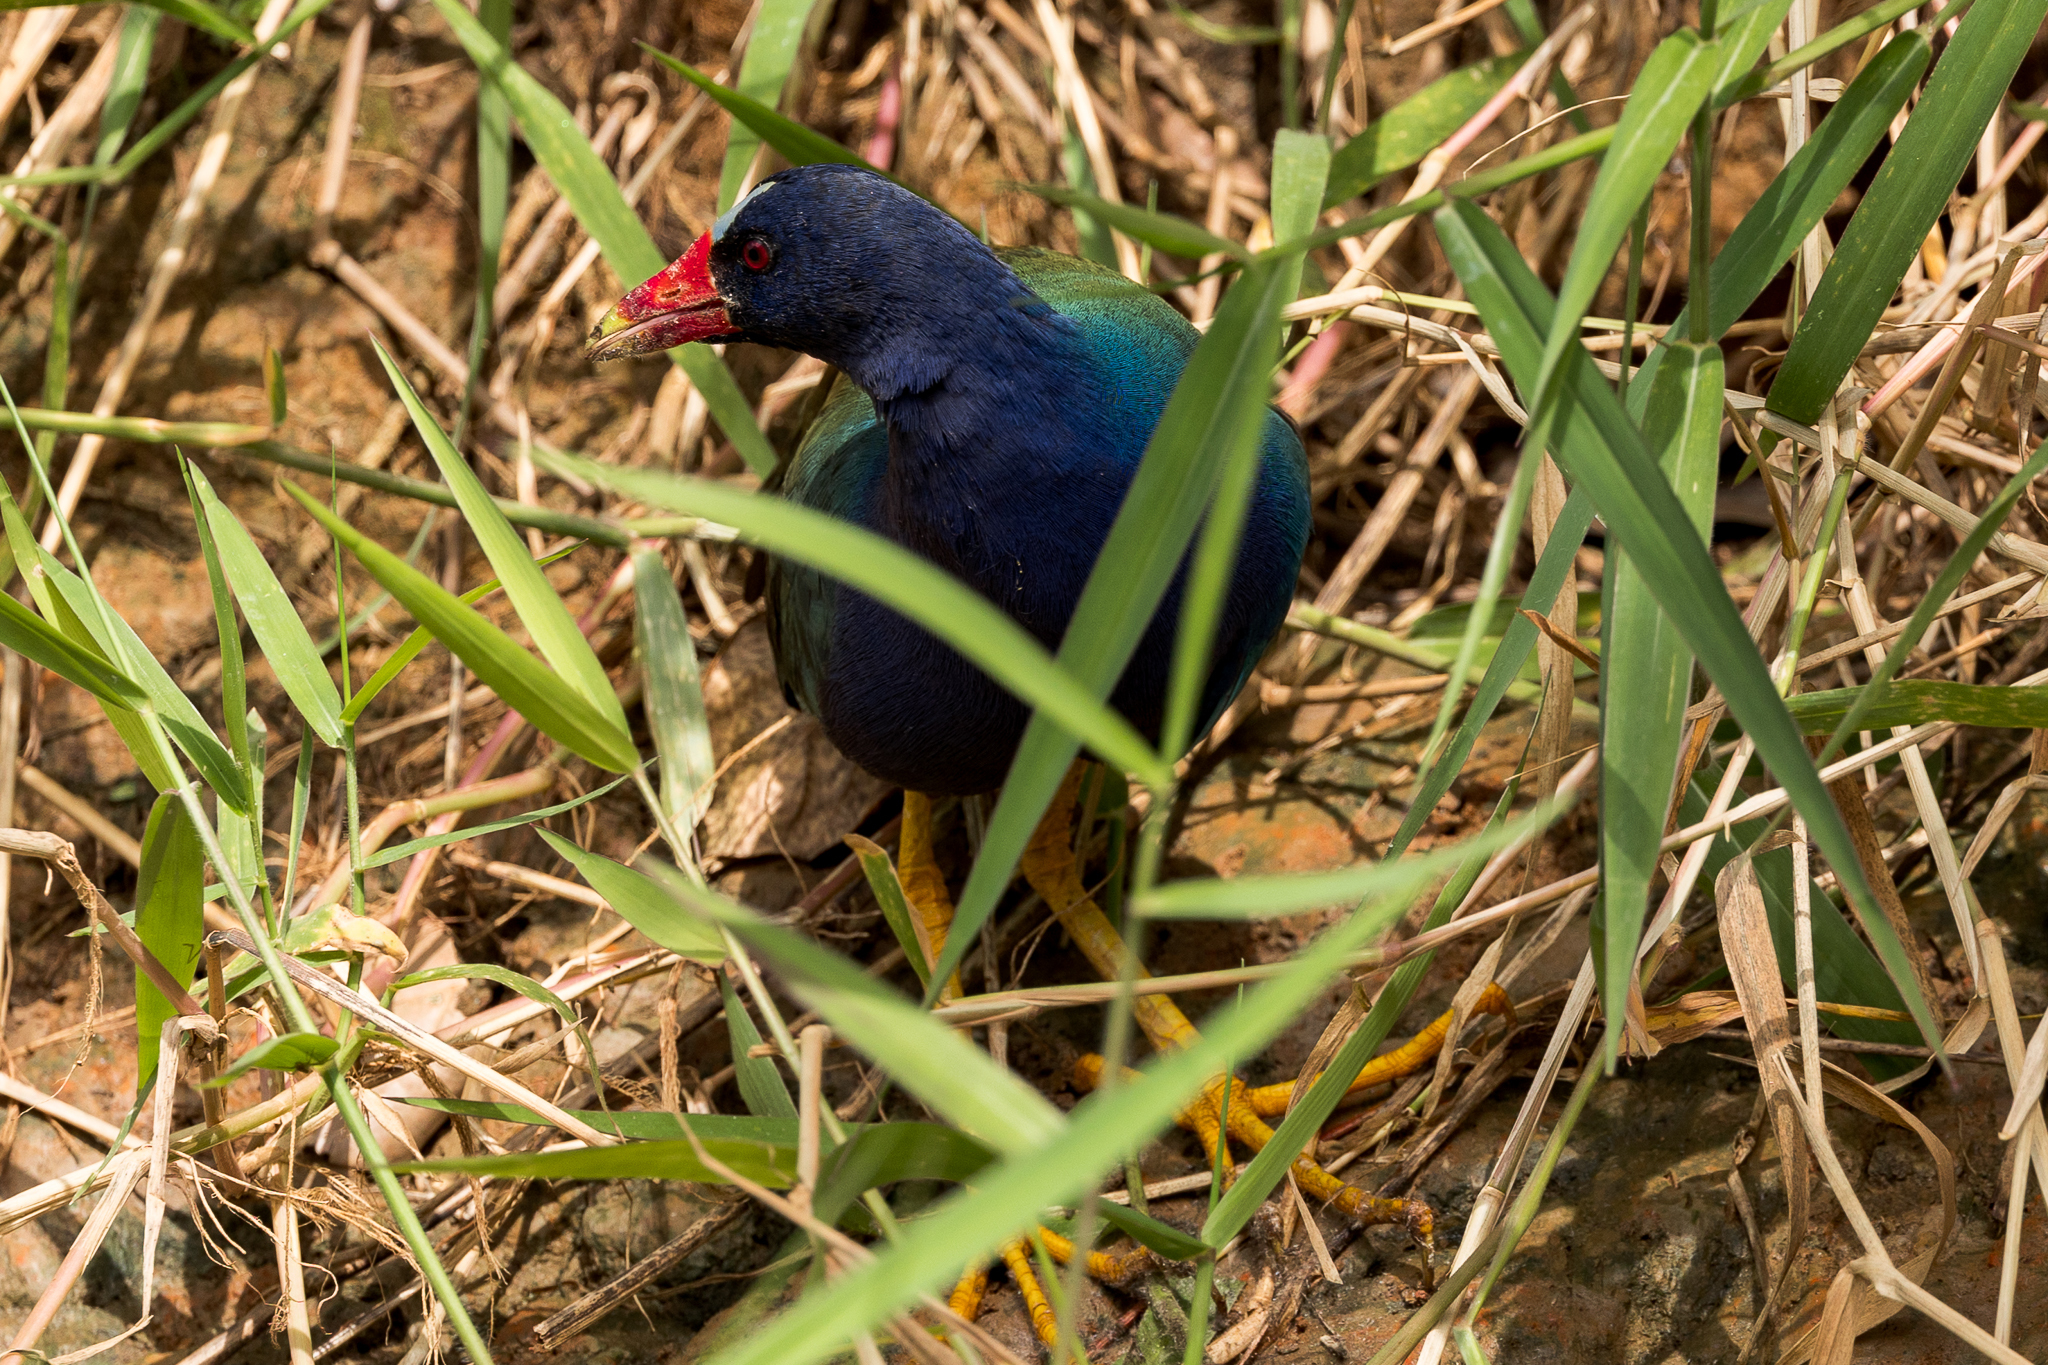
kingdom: Animalia
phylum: Chordata
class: Aves
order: Gruiformes
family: Rallidae
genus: Porphyrio
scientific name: Porphyrio martinica
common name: Purple gallinule
